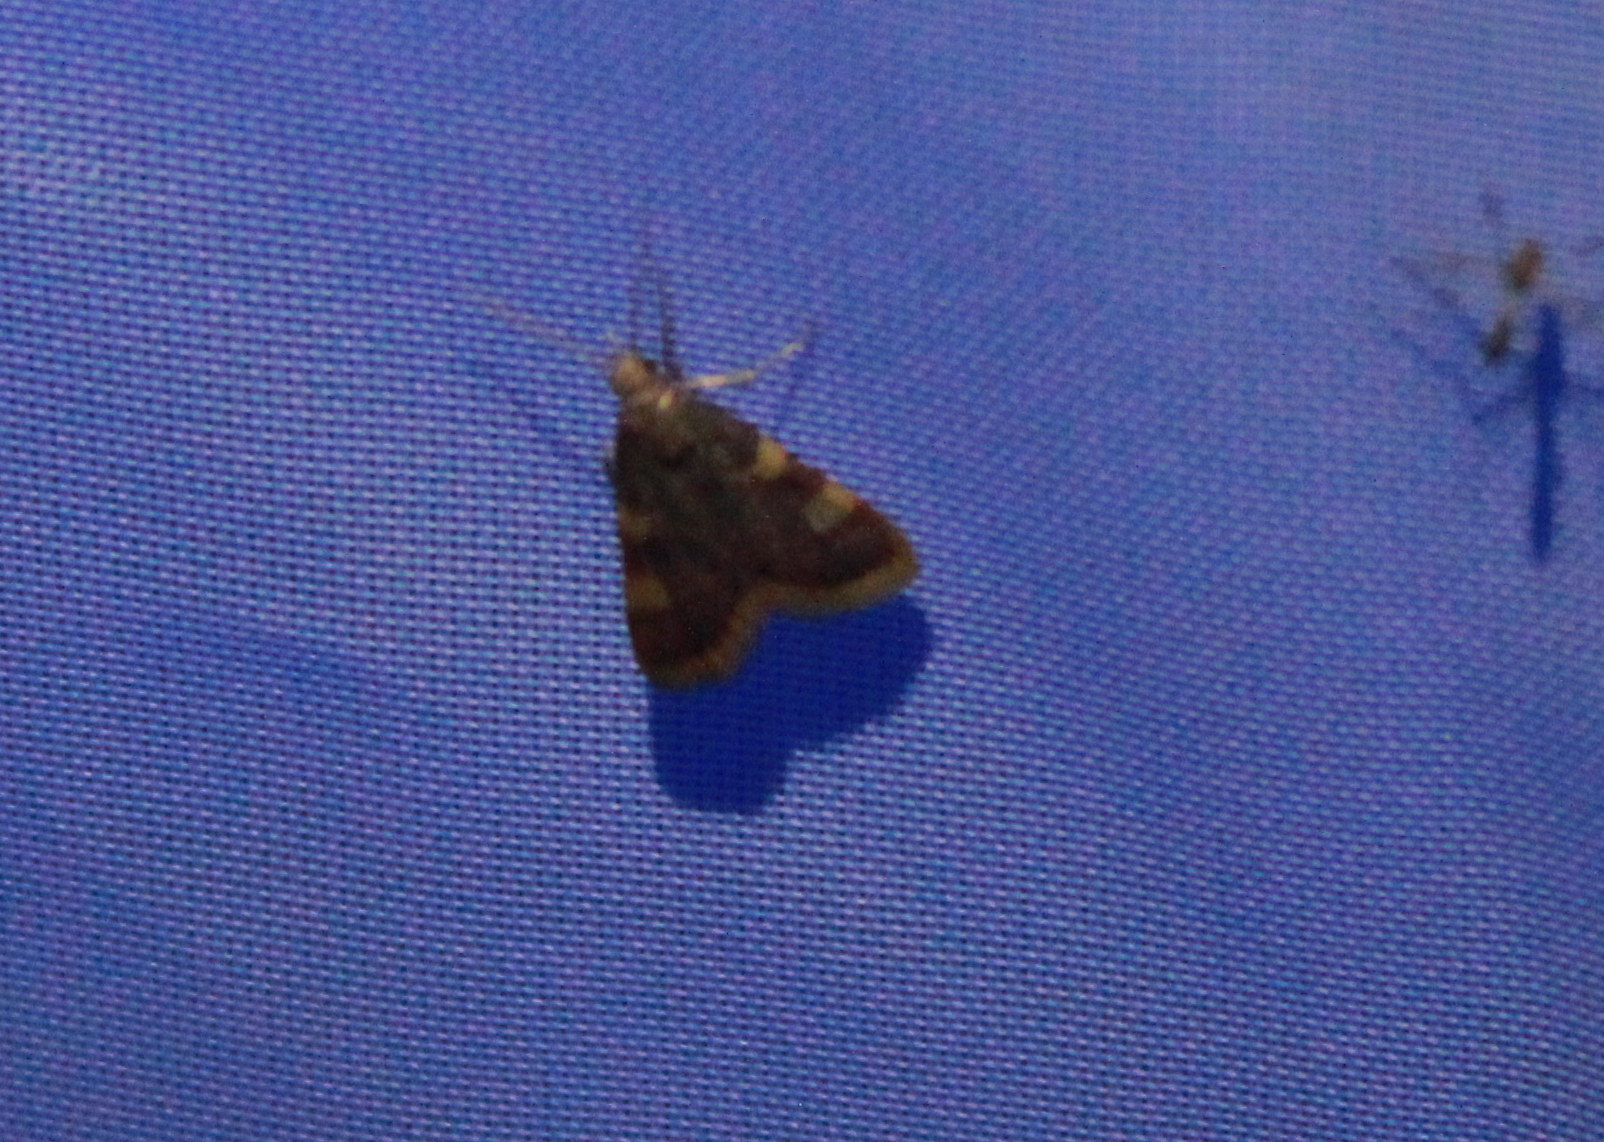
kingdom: Animalia
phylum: Arthropoda
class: Insecta
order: Lepidoptera
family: Pyralidae
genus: Hypsopygia
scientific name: Hypsopygia costalis
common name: Gold triangle
